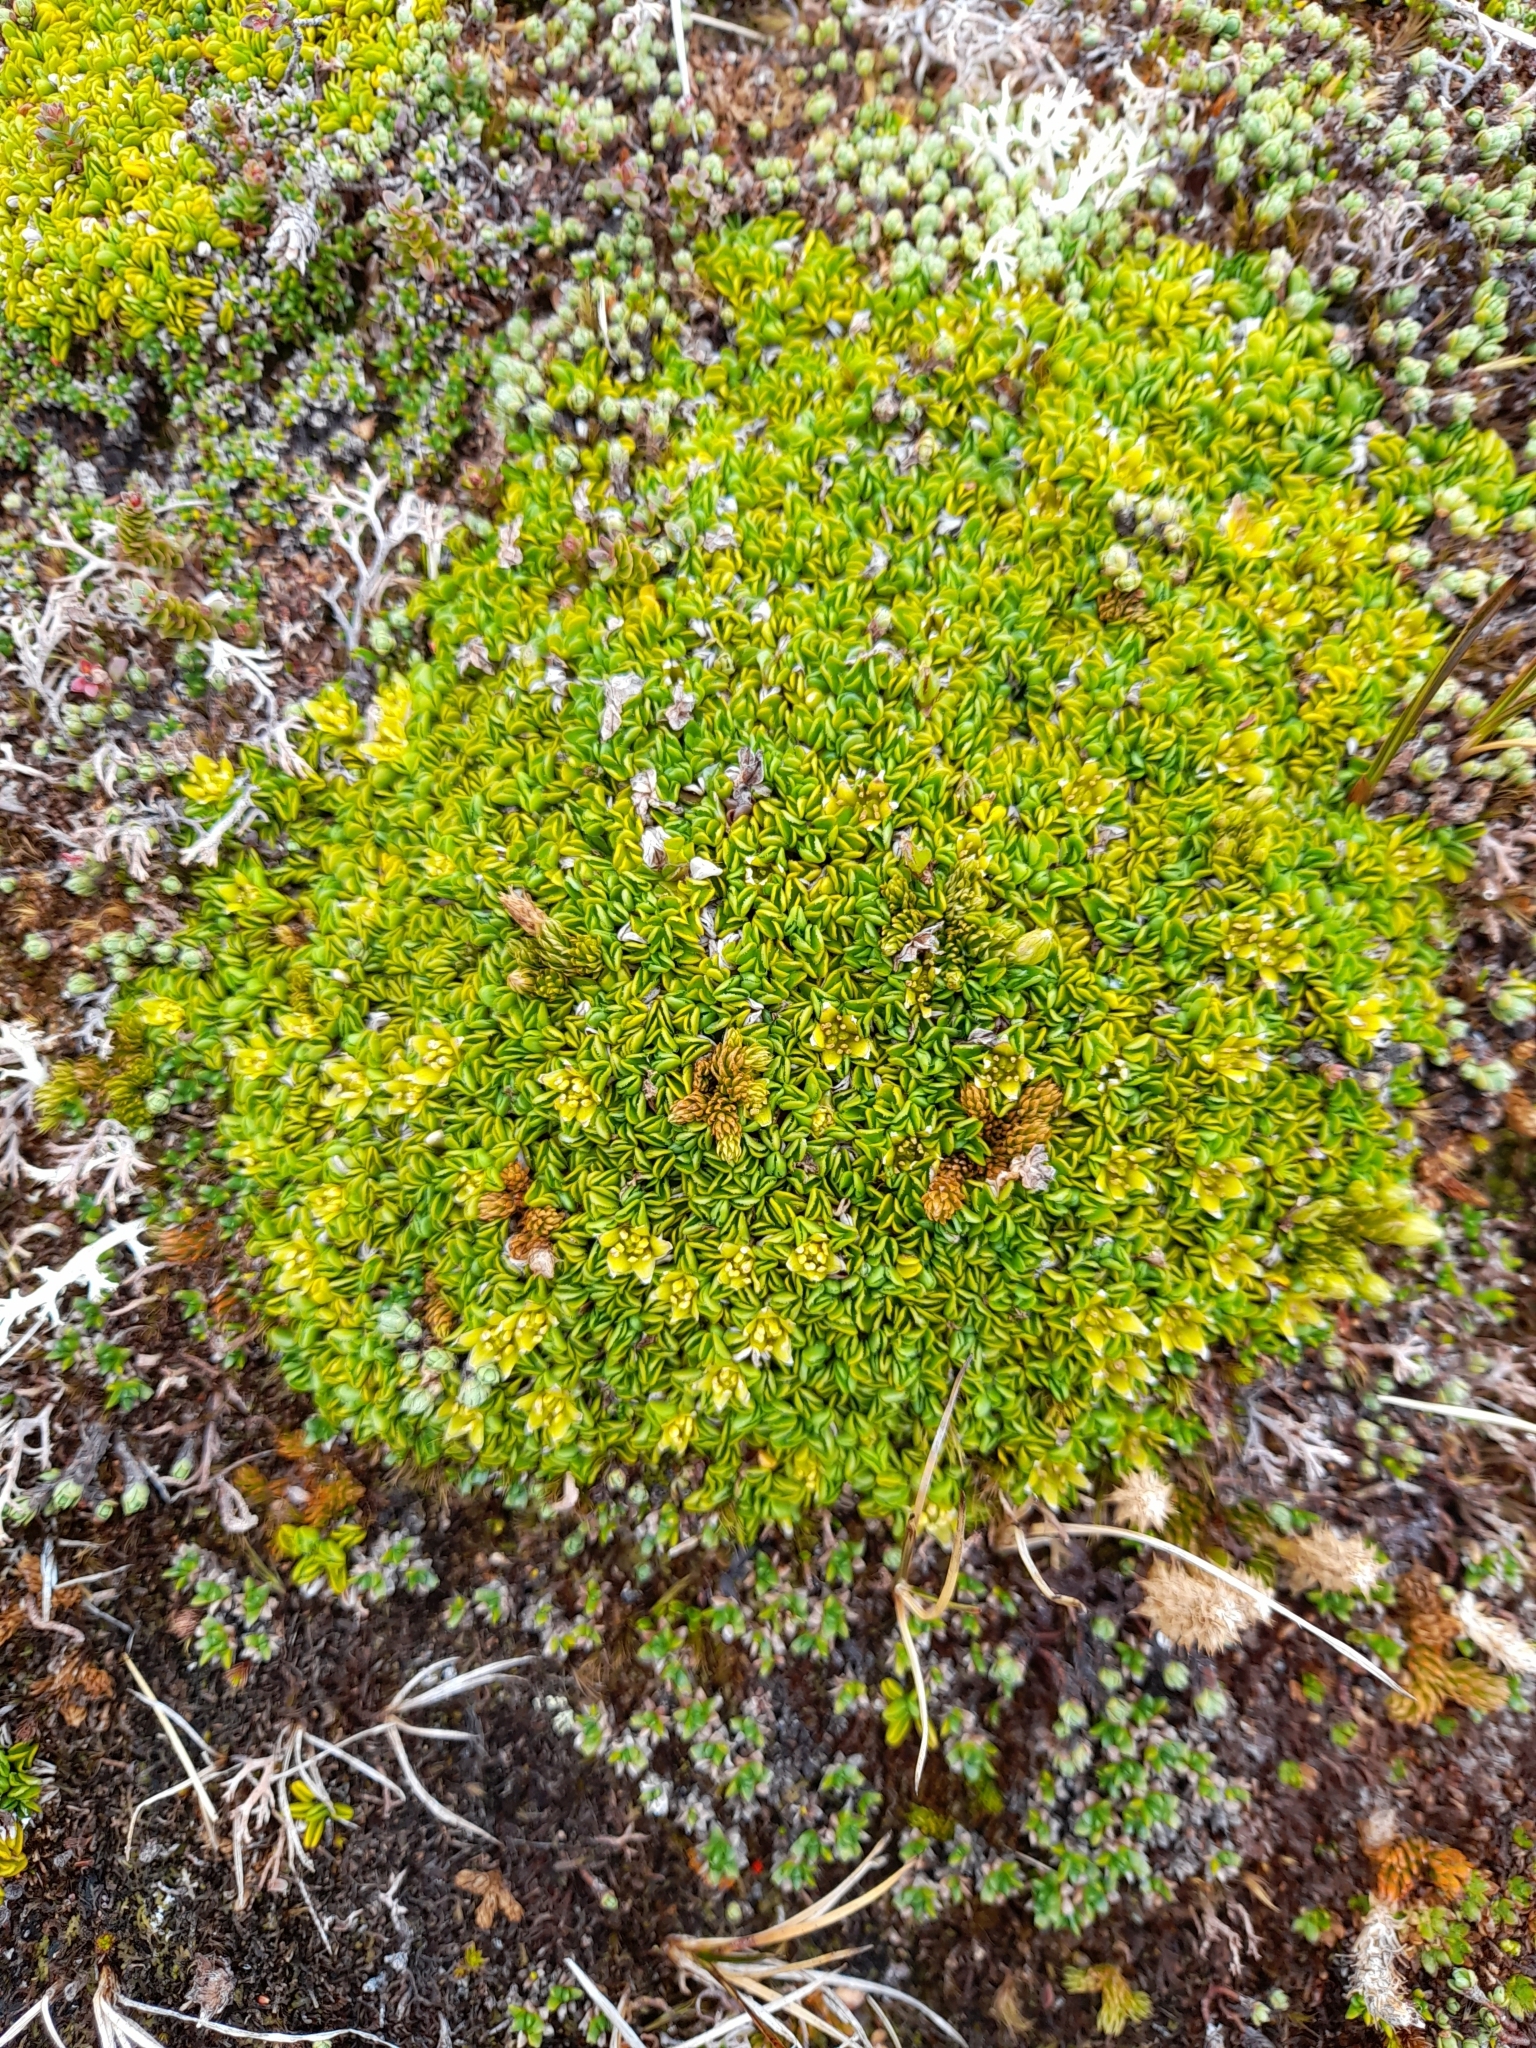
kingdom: Plantae
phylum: Tracheophyta
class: Magnoliopsida
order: Ranunculales
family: Ranunculaceae
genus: Caltha
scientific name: Caltha dionaeifolia
